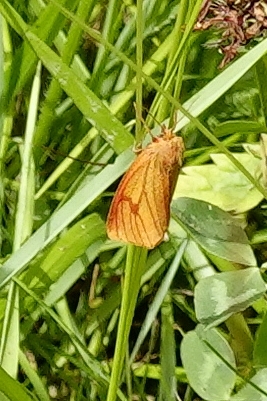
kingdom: Animalia
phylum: Arthropoda
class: Insecta
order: Lepidoptera
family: Erebidae
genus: Diacrisia
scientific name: Diacrisia sannio
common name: Clouded buff
